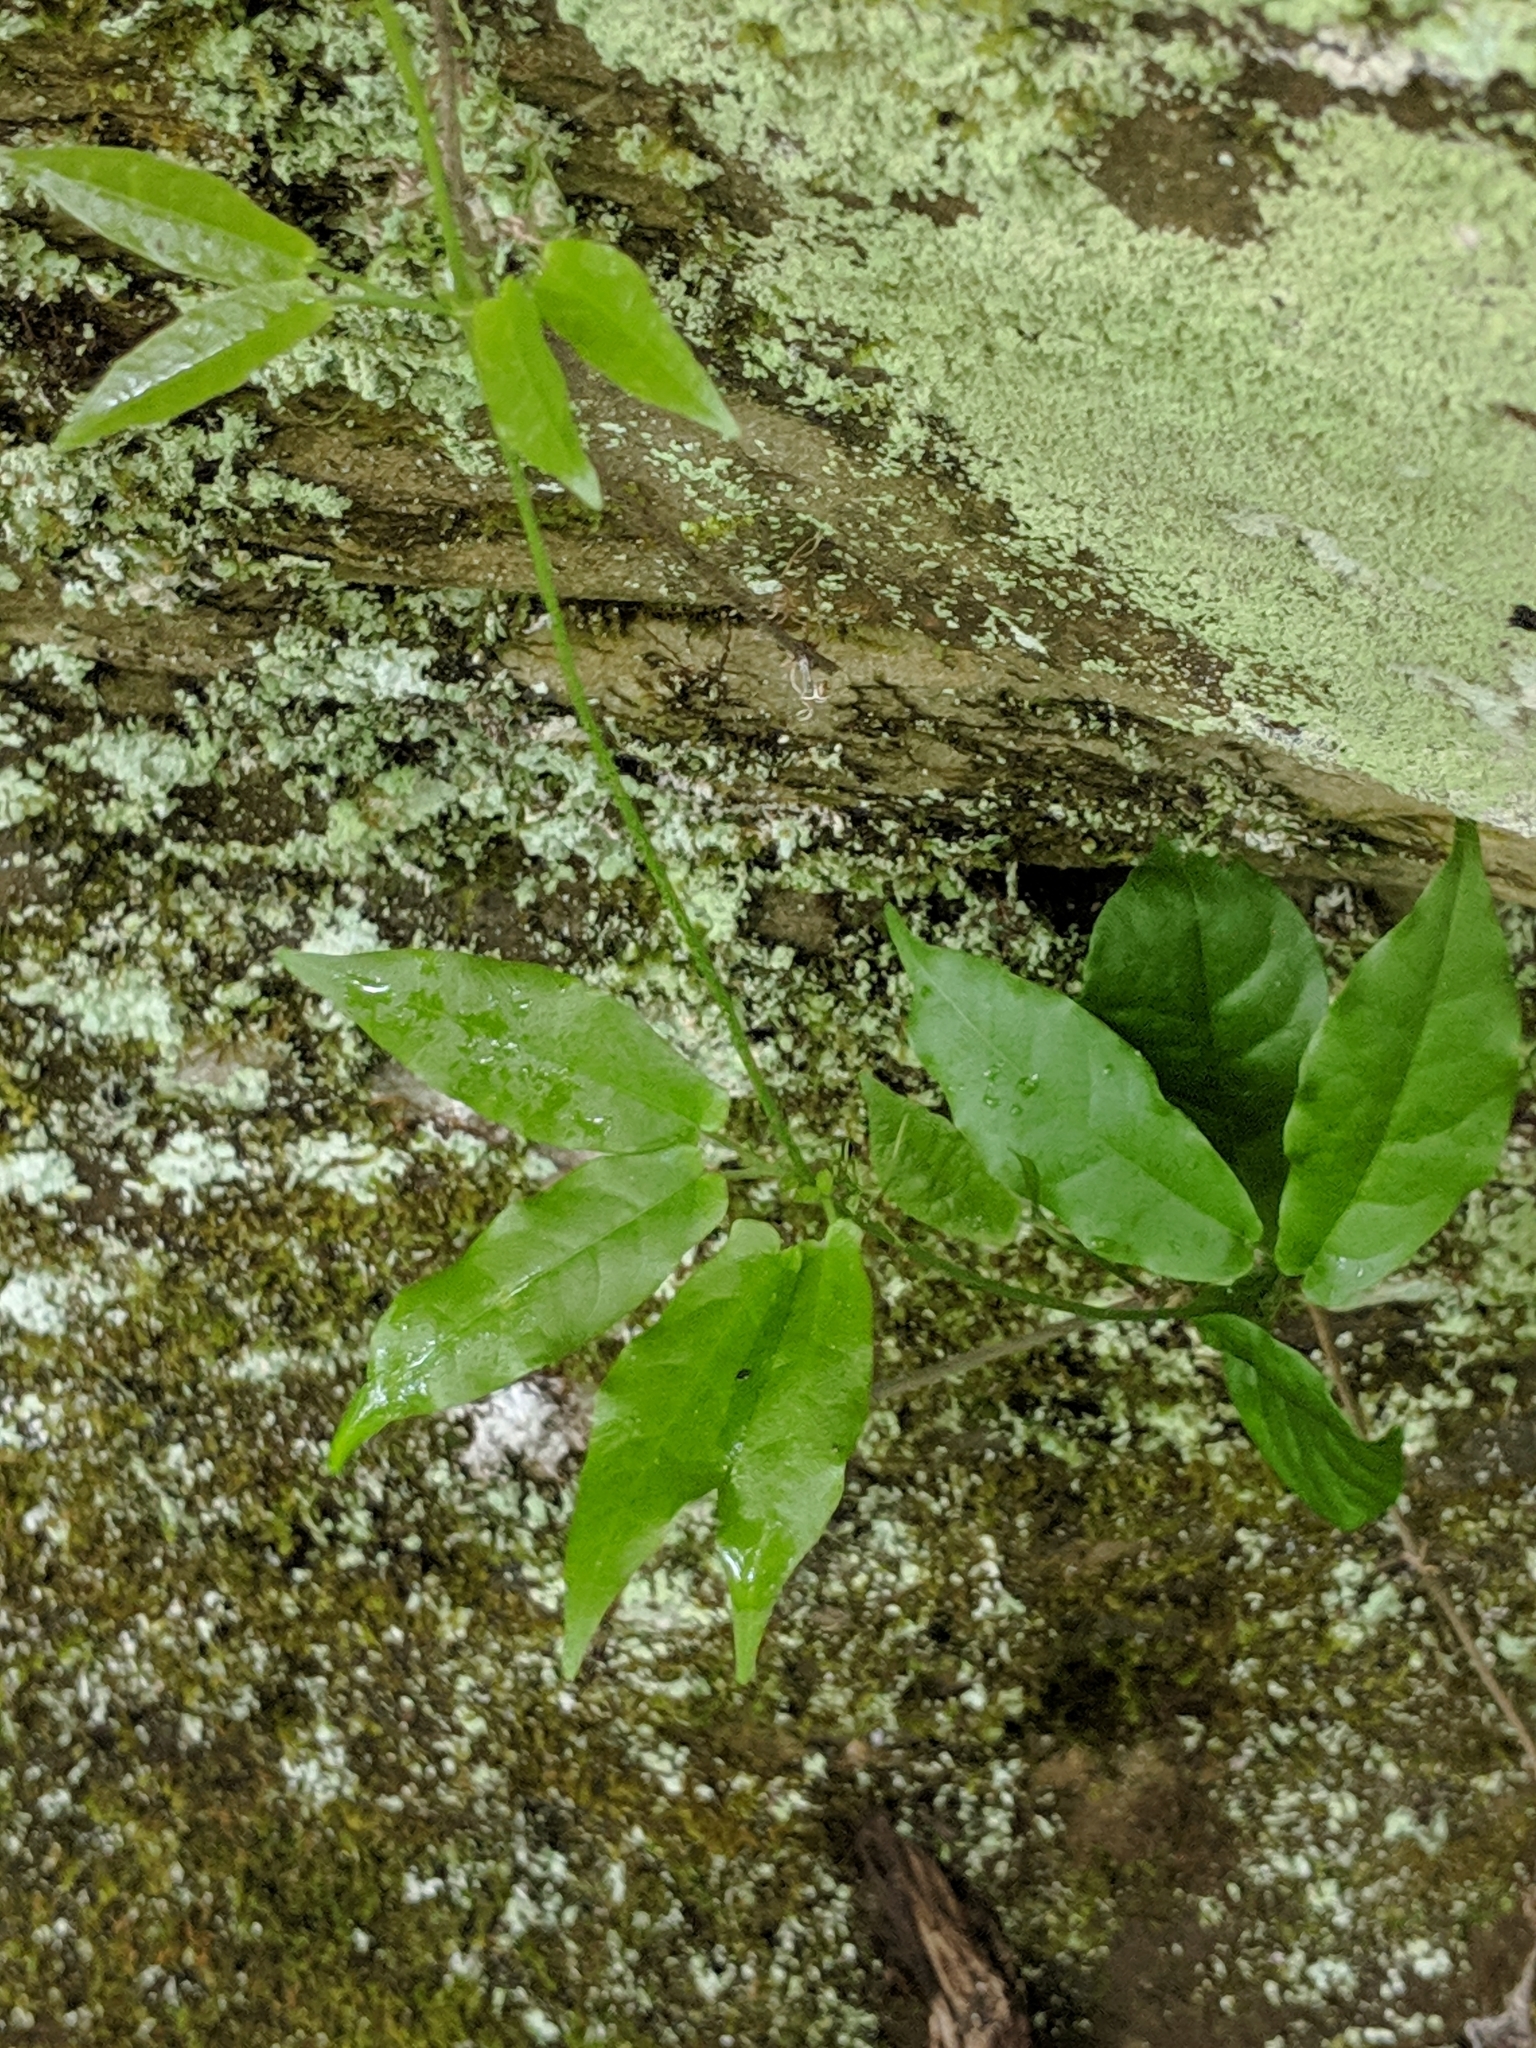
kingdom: Plantae
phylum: Tracheophyta
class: Magnoliopsida
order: Lamiales
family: Bignoniaceae
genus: Bignonia
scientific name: Bignonia capreolata
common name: Crossvine
